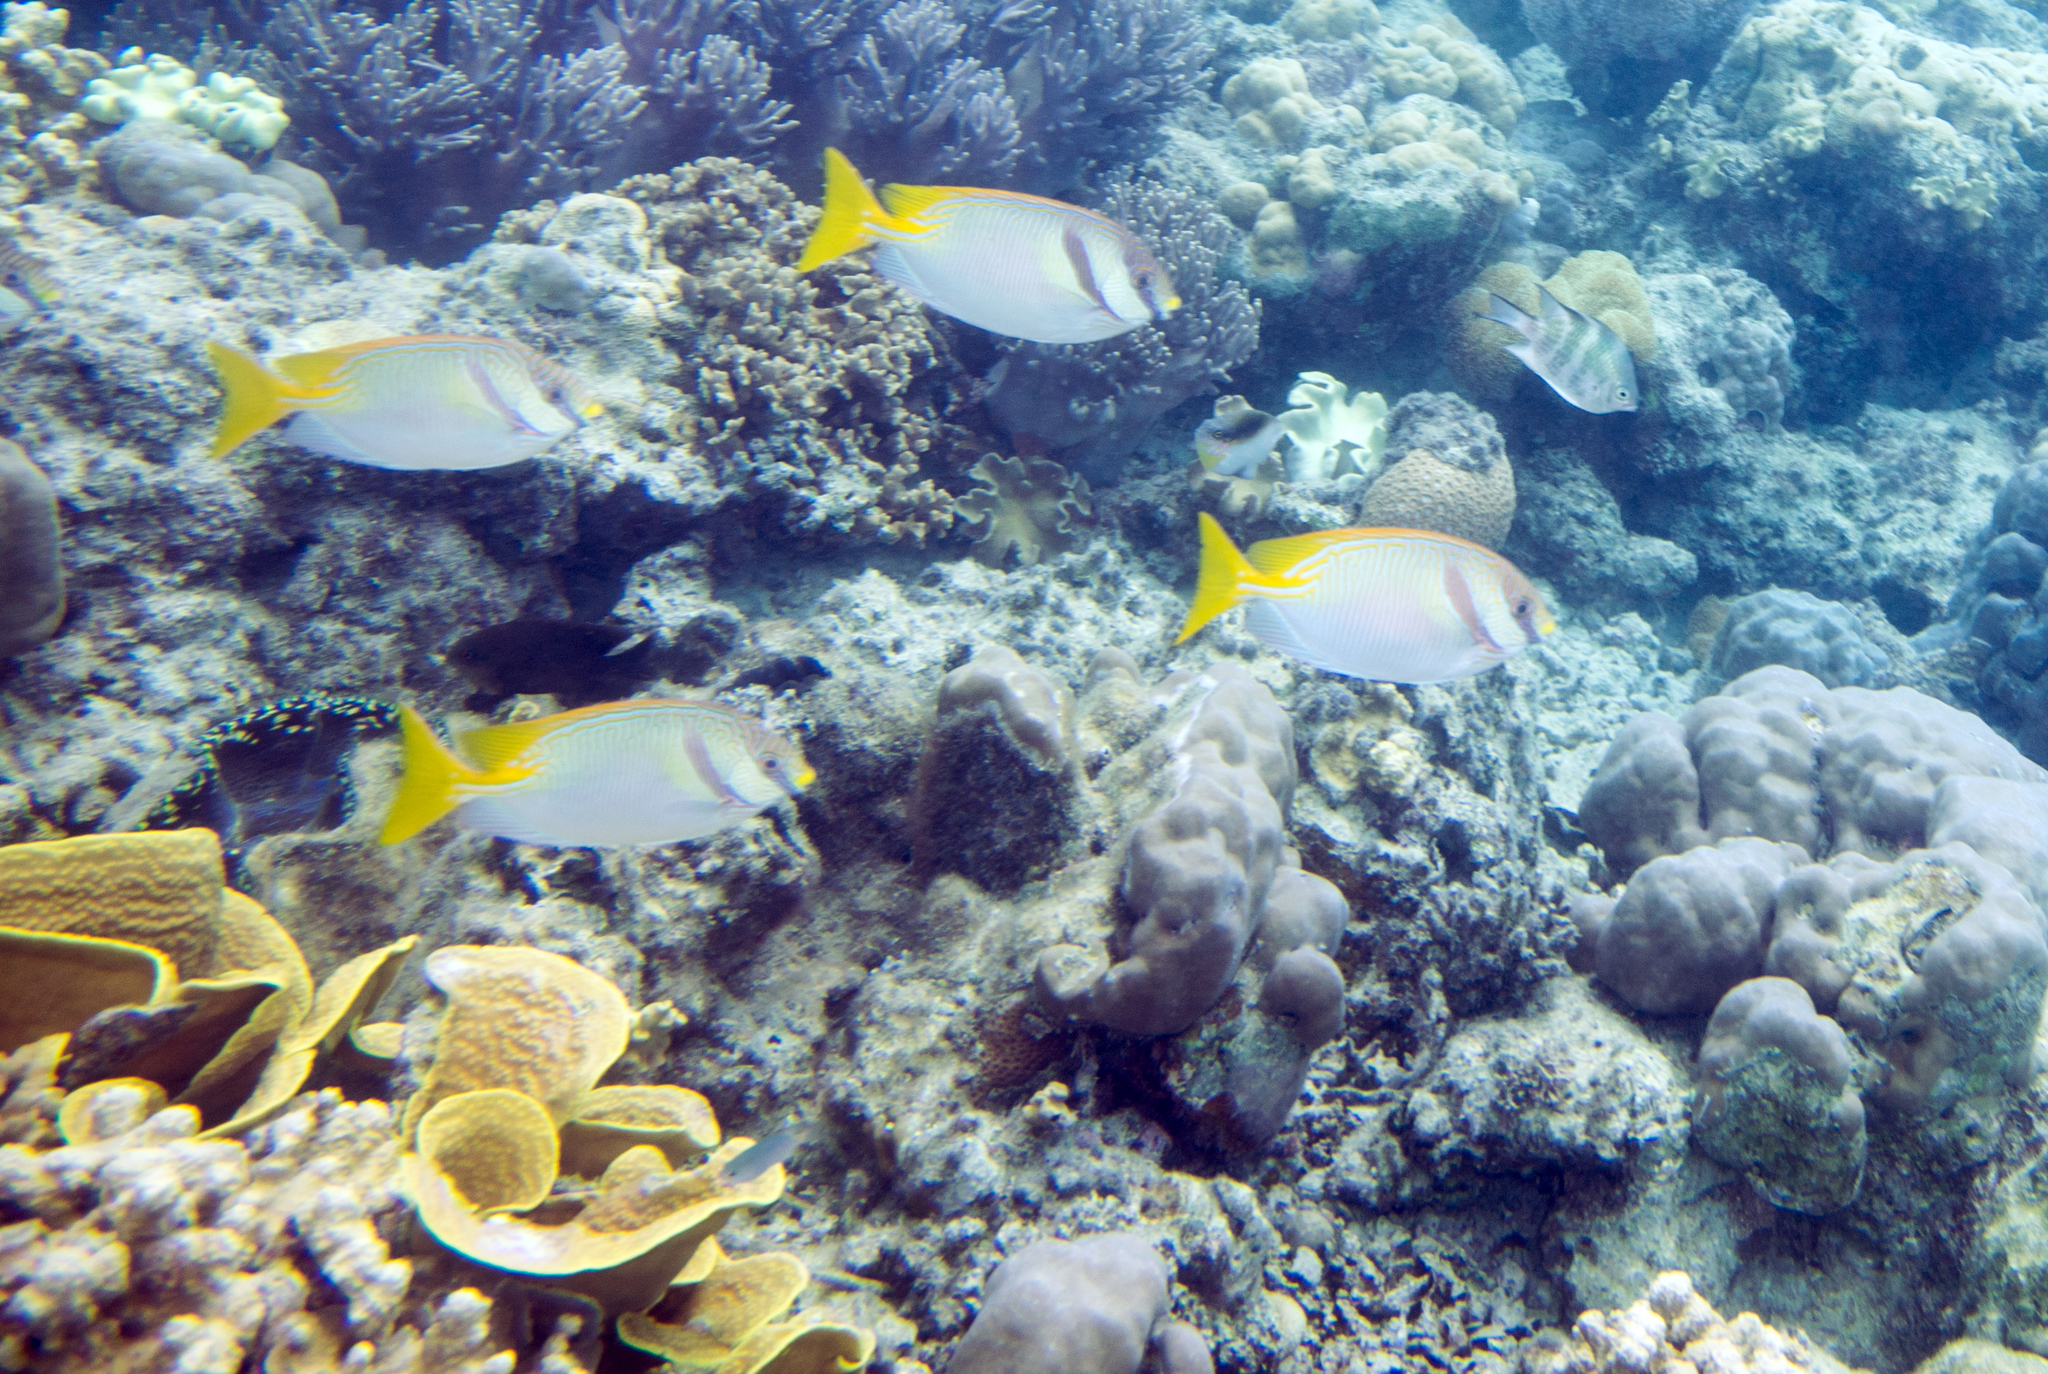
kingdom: Animalia
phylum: Cnidaria
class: Anthozoa
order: Scleractinia
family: Dendrophylliidae
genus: Turbinaria
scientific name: Turbinaria reniformis
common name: Disc coral
